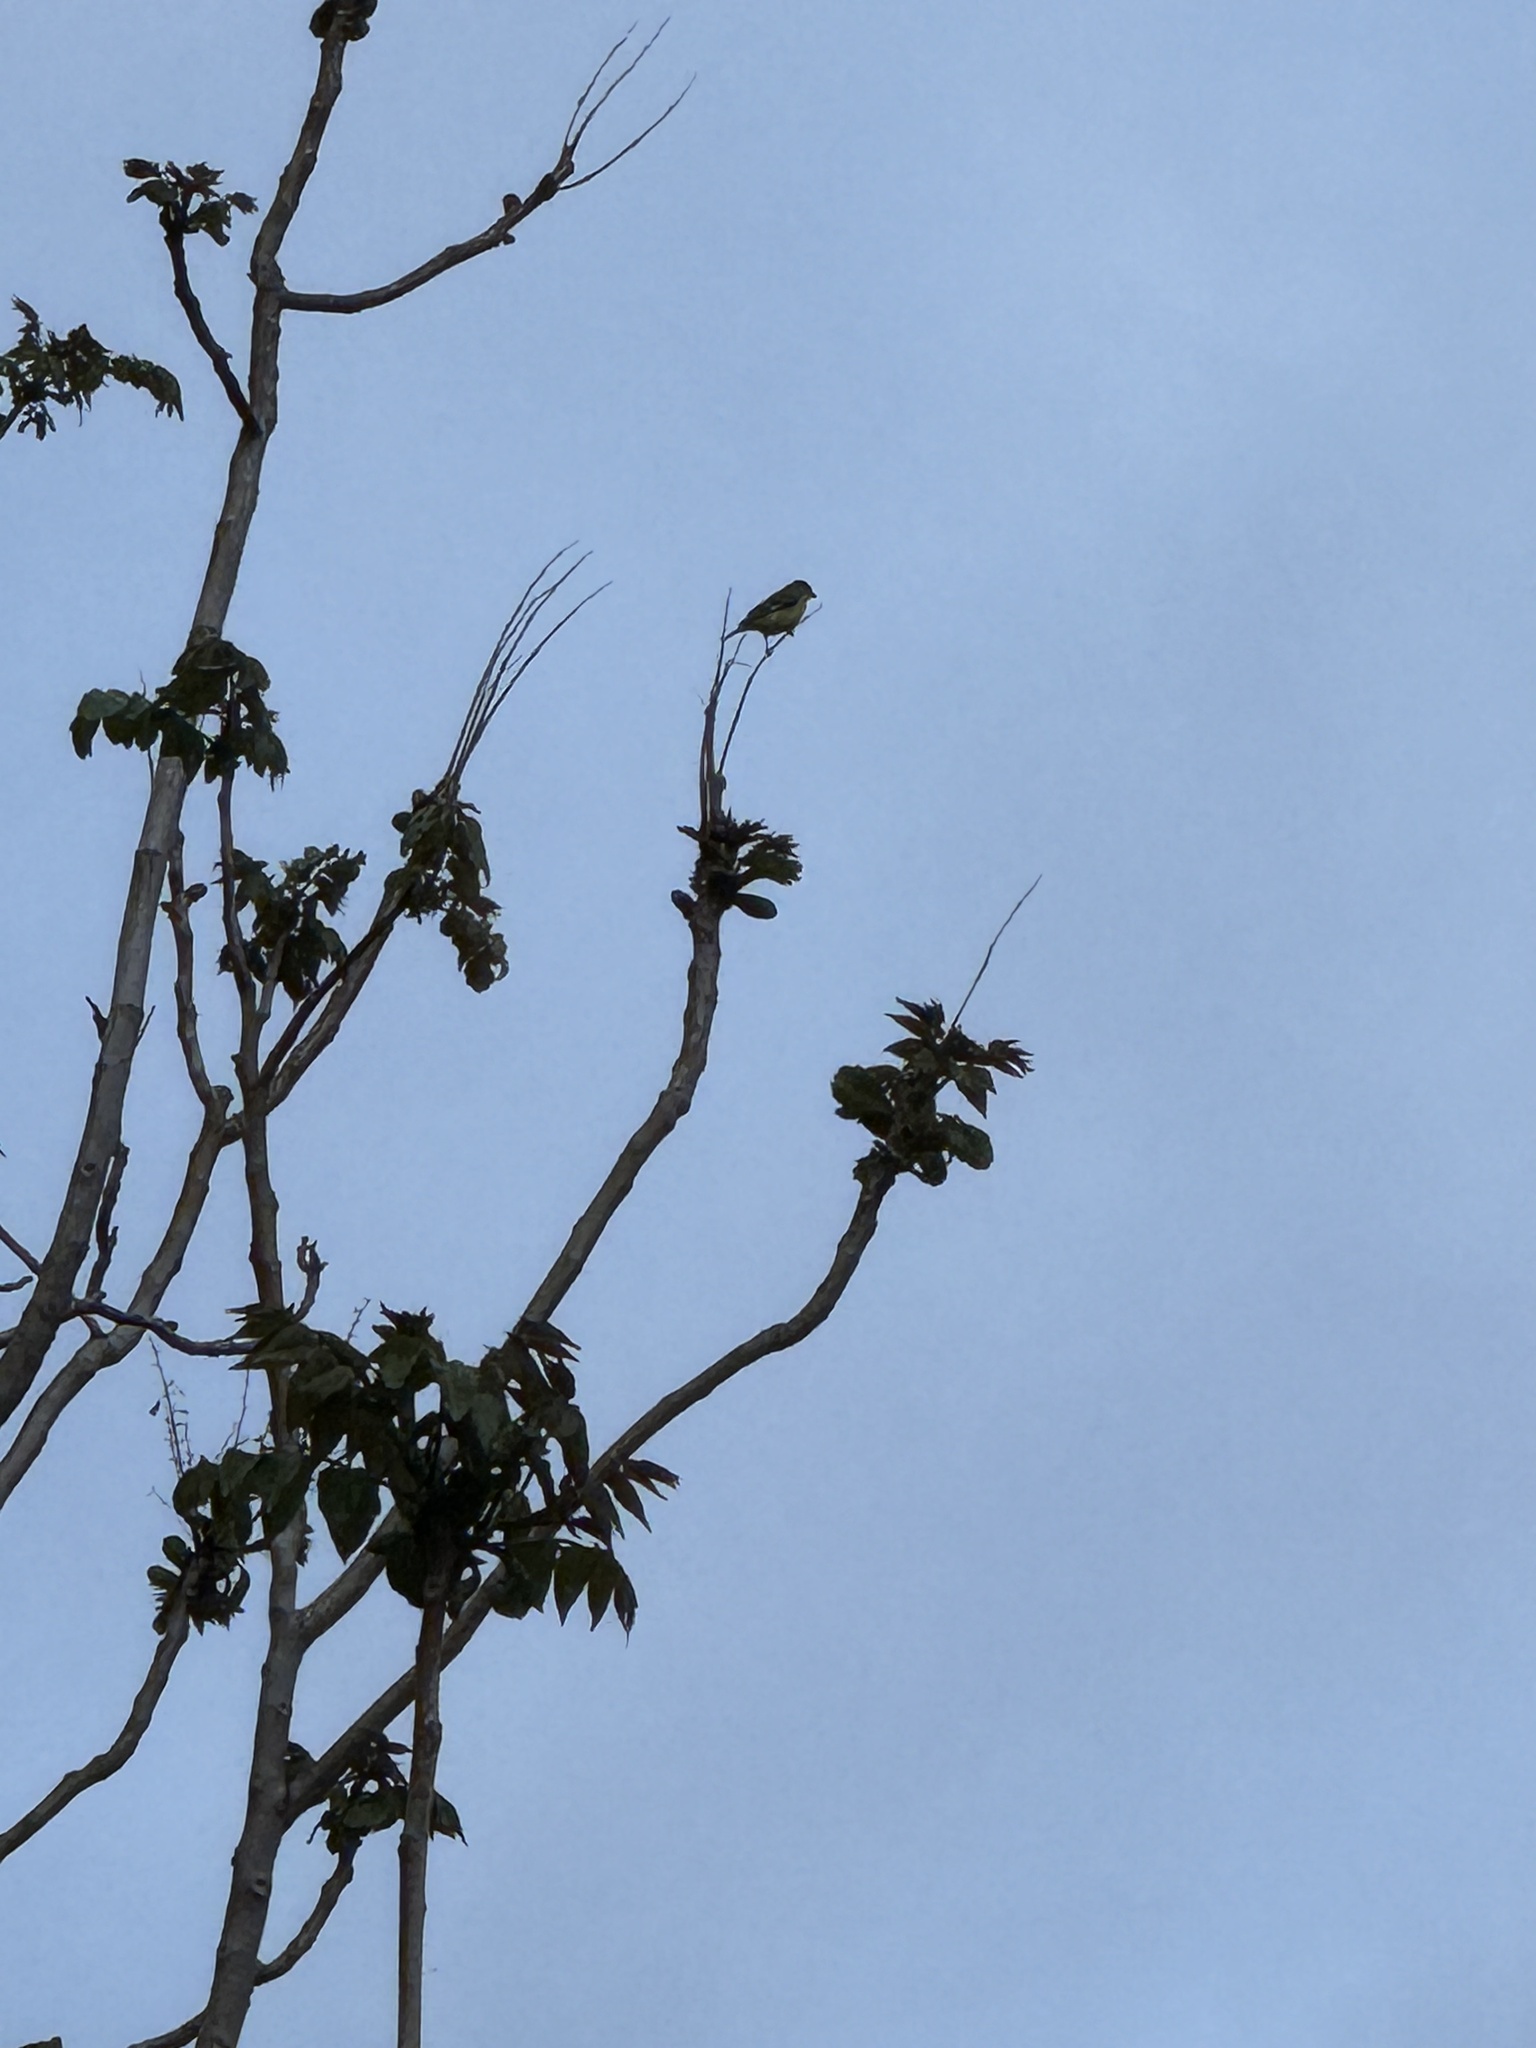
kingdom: Animalia
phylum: Chordata
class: Aves
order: Passeriformes
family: Fringillidae
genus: Spinus
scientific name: Spinus psaltria
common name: Lesser goldfinch
